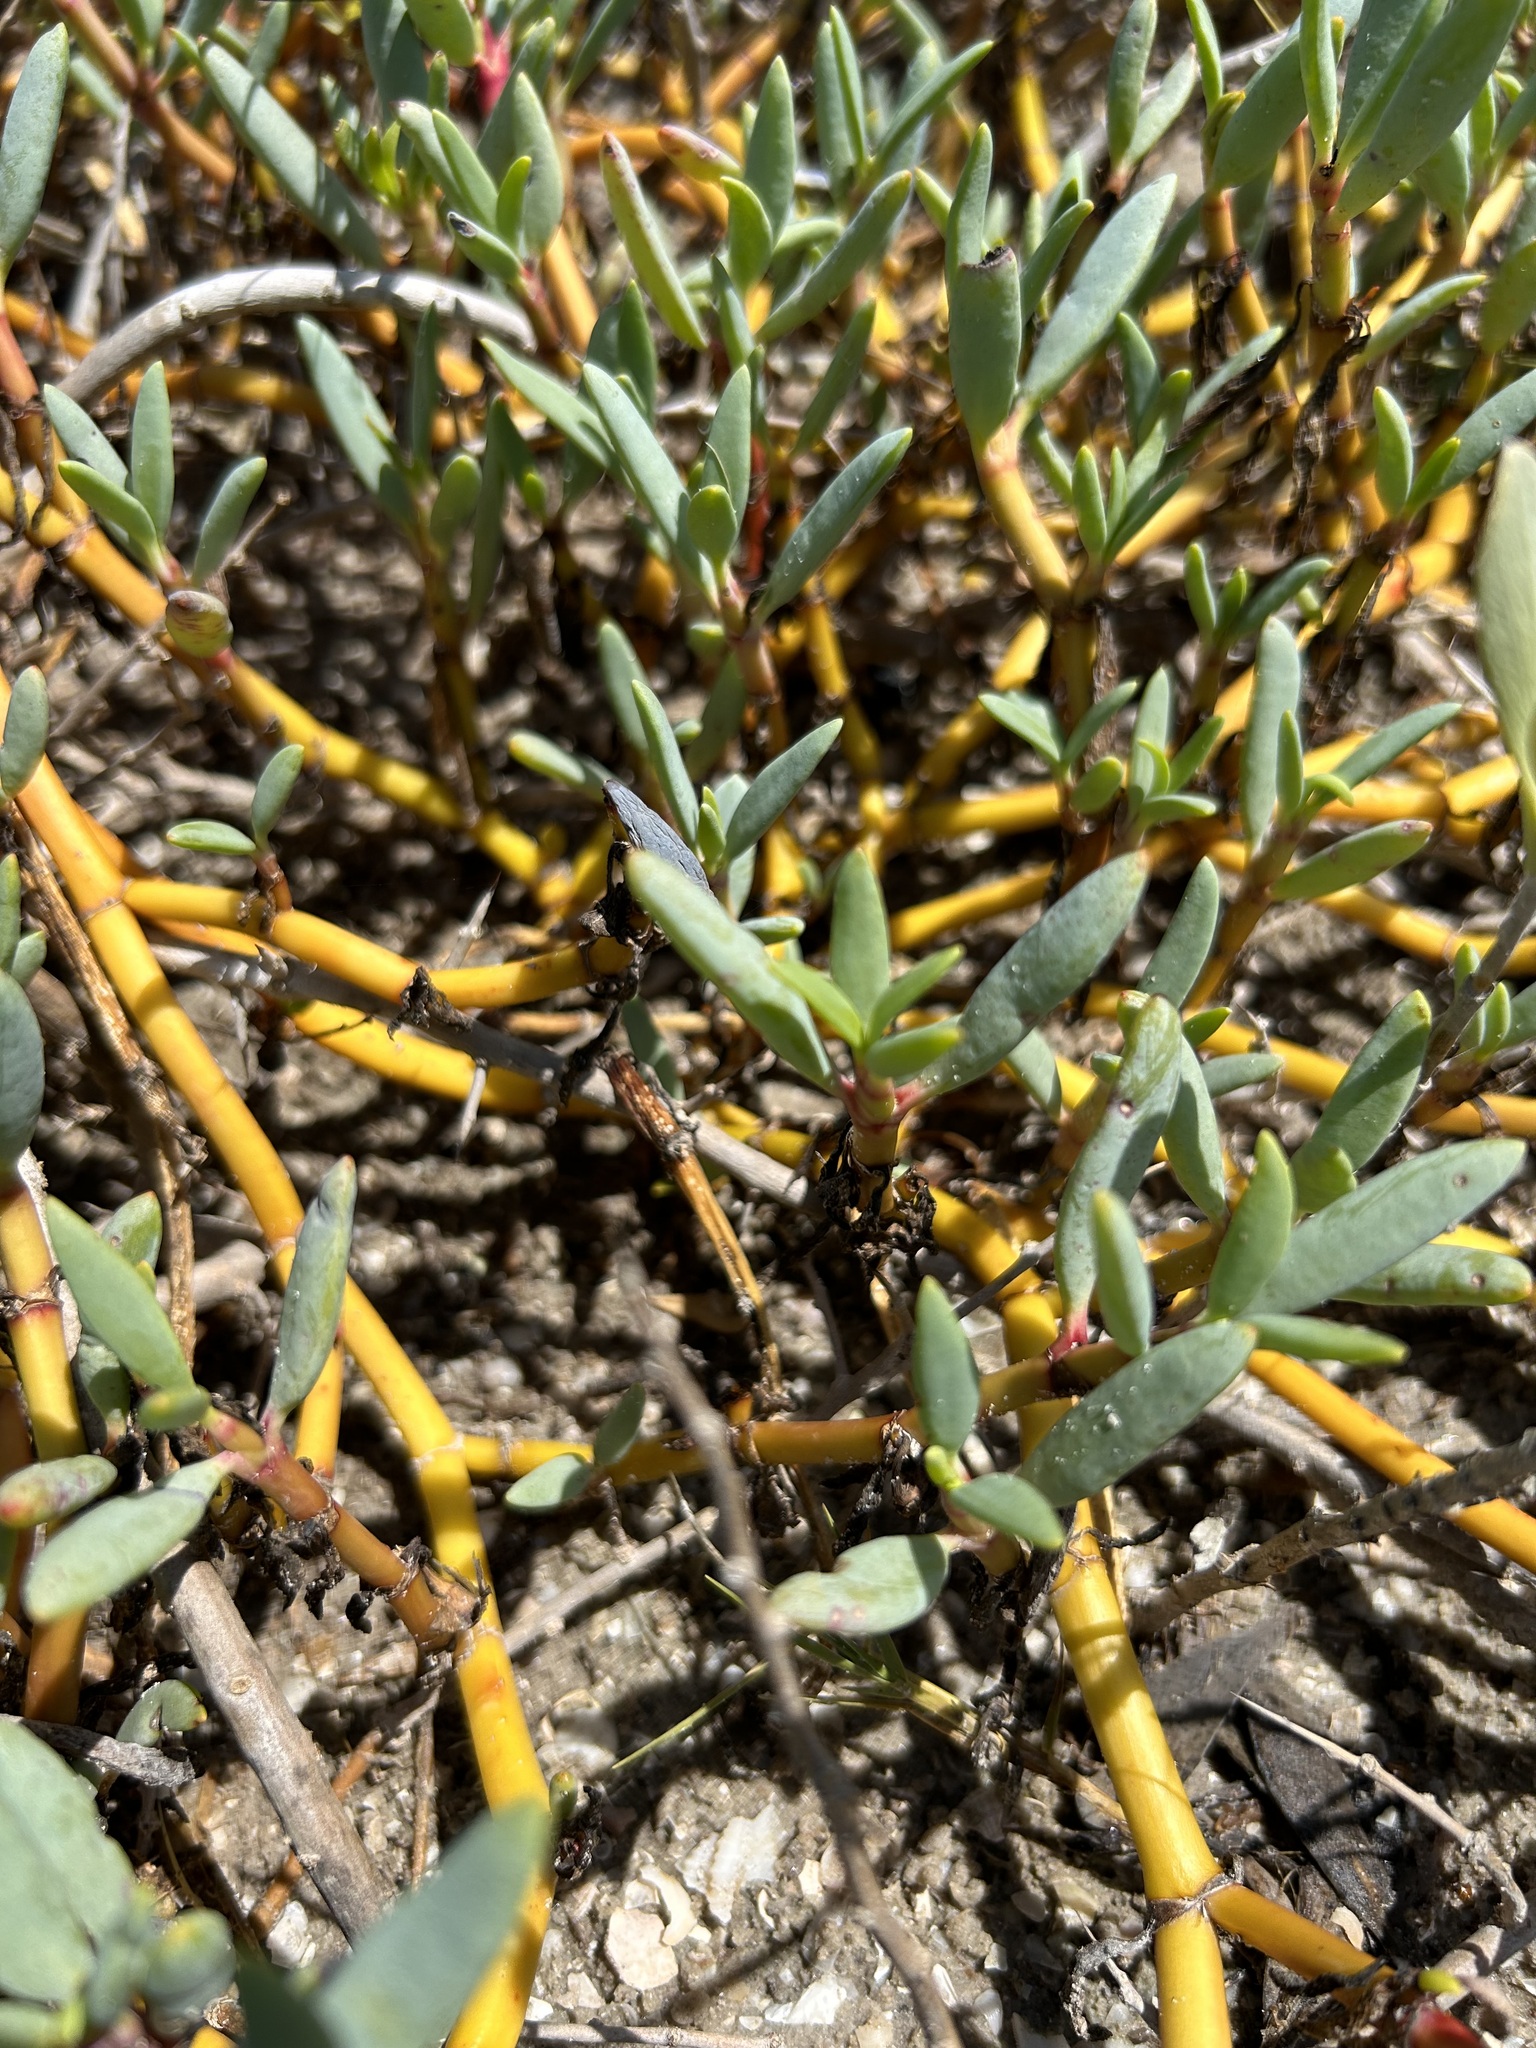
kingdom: Plantae
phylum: Tracheophyta
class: Magnoliopsida
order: Caryophyllales
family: Aizoaceae
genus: Sesuvium
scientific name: Sesuvium portulacastrum
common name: Sea-purslane
